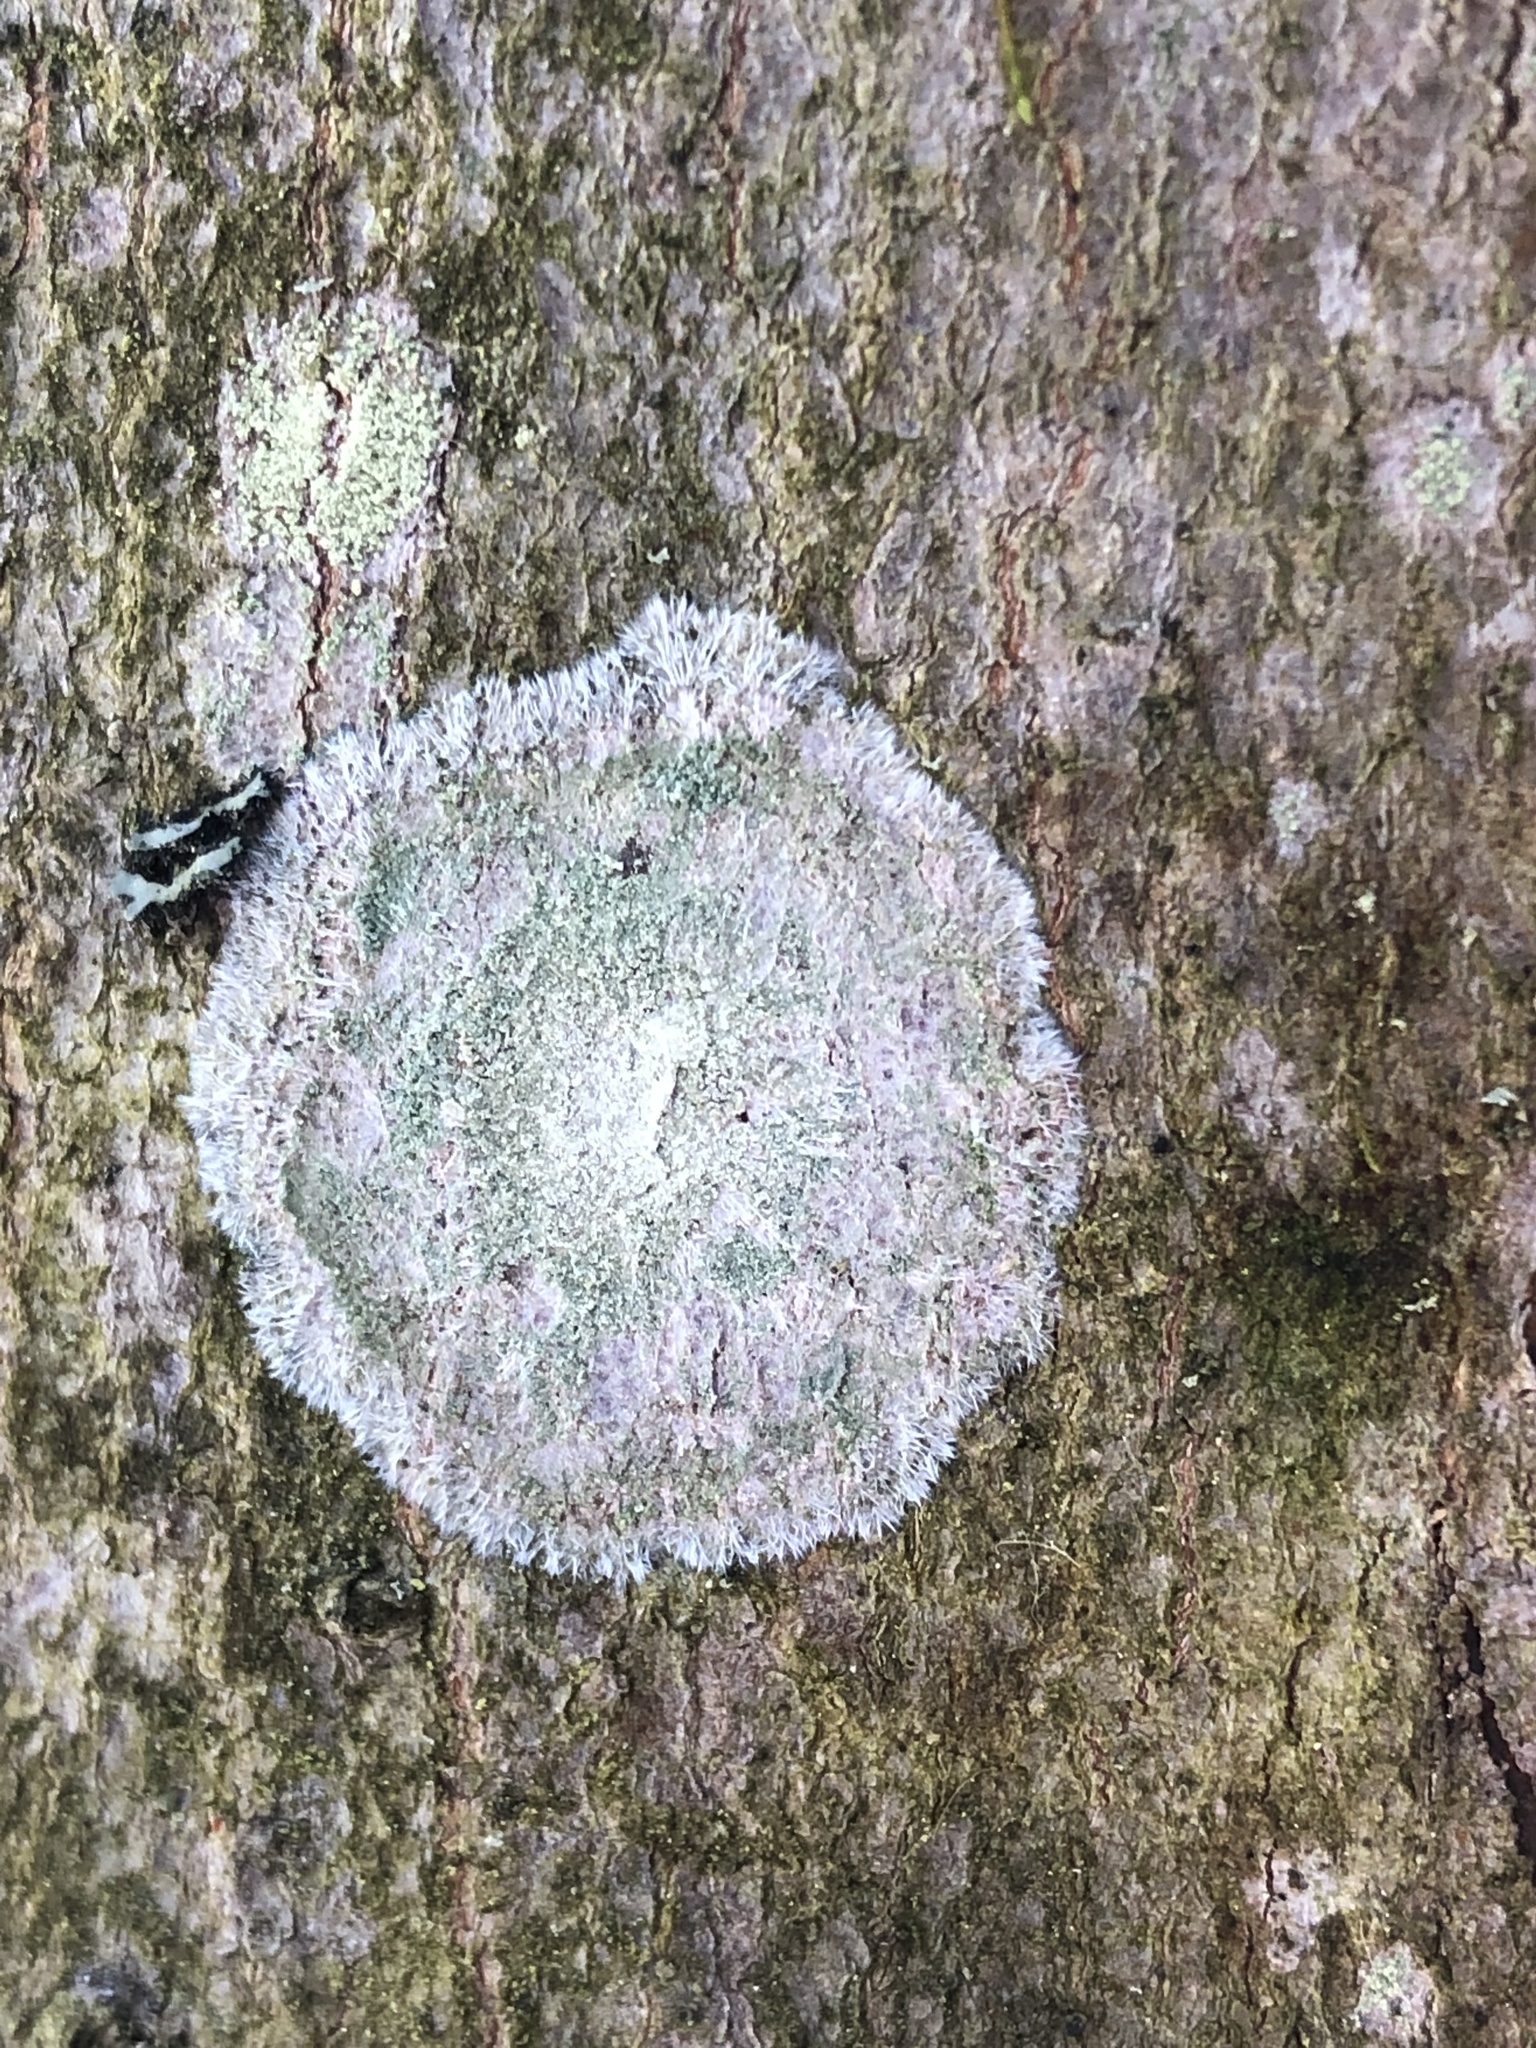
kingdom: Fungi
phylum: Ascomycota
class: Lecanoromycetes
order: Pertusariales
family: Pertusariaceae
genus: Verseghya
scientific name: Verseghya thysanophora
